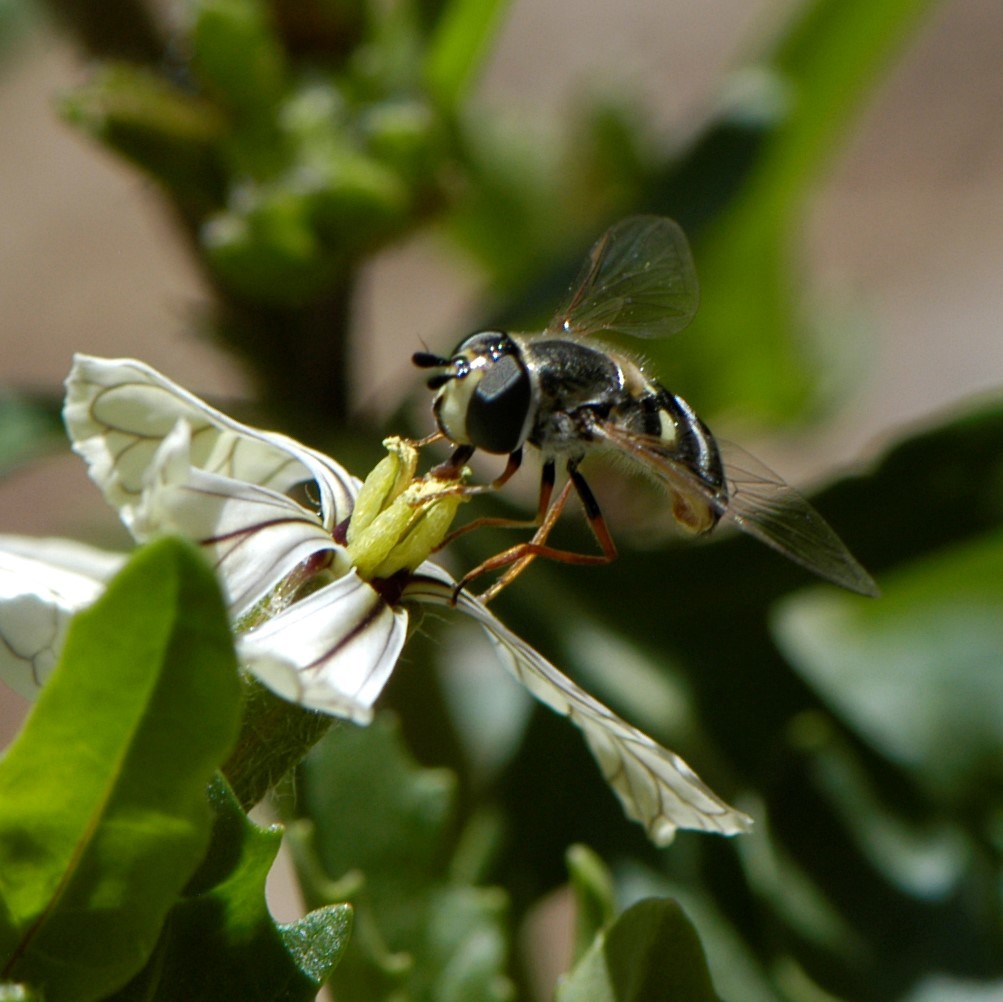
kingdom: Animalia
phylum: Arthropoda
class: Insecta
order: Diptera
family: Syrphidae
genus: Eupeodes
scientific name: Eupeodes volucris
